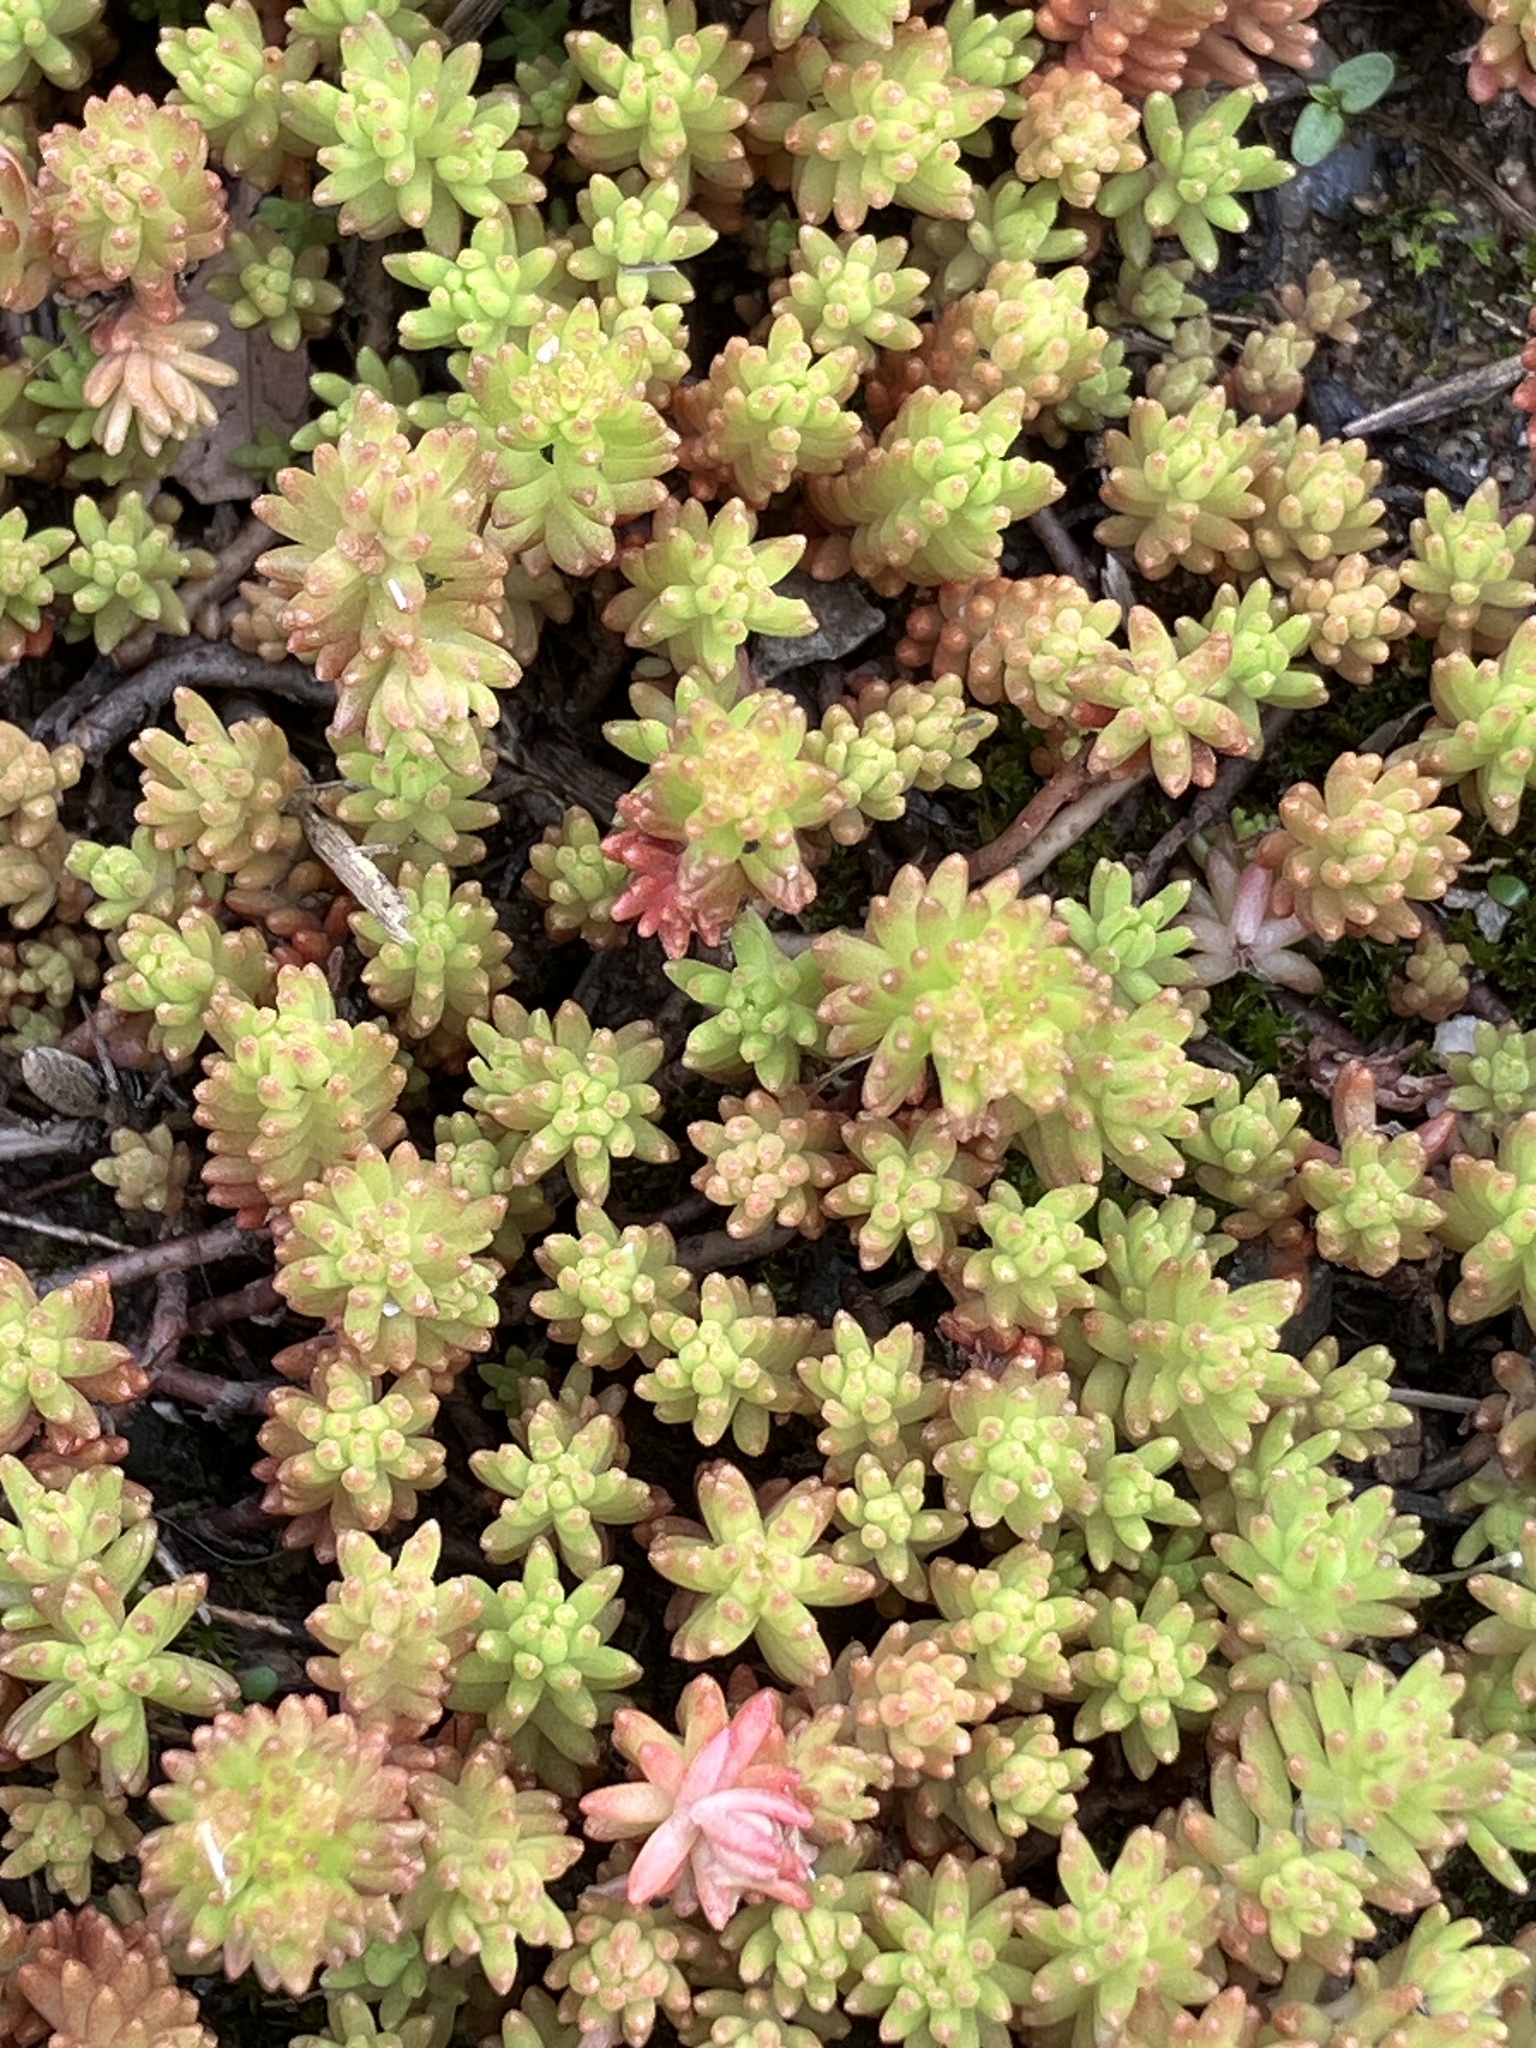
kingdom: Plantae
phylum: Tracheophyta
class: Magnoliopsida
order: Saxifragales
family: Crassulaceae
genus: Sedum
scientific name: Sedum sexangulare
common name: Tasteless stonecrop
